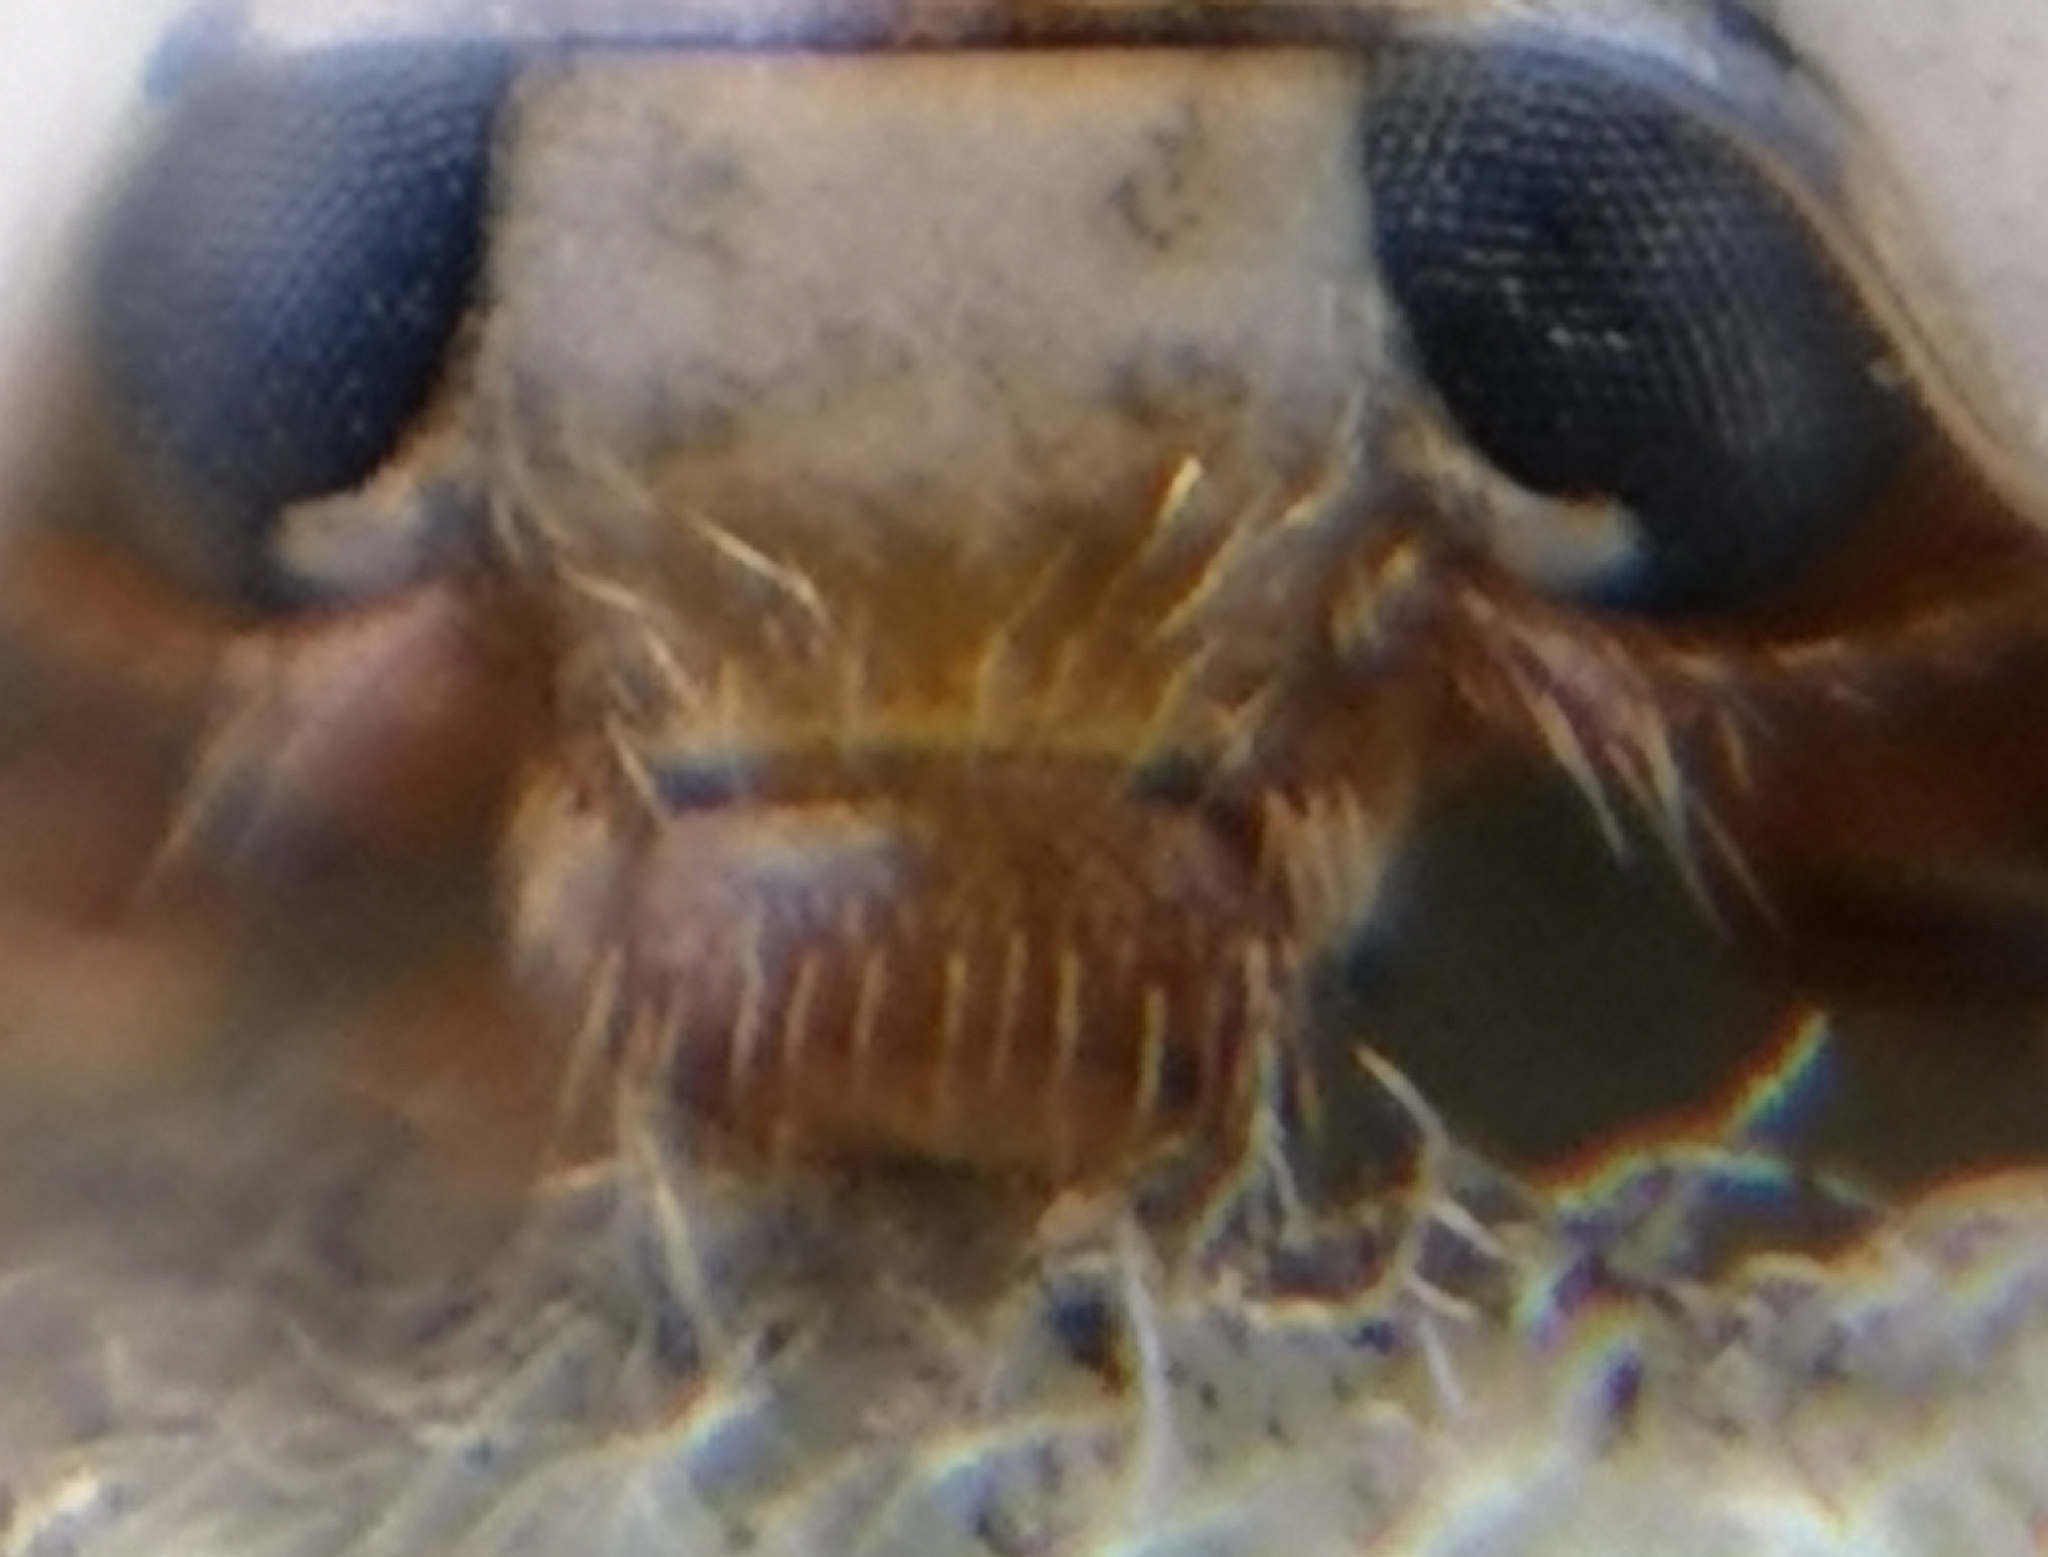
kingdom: Animalia
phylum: Arthropoda
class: Insecta
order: Coleoptera
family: Coccinellidae
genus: Harmonia
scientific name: Harmonia axyridis
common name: Harlequin ladybird
